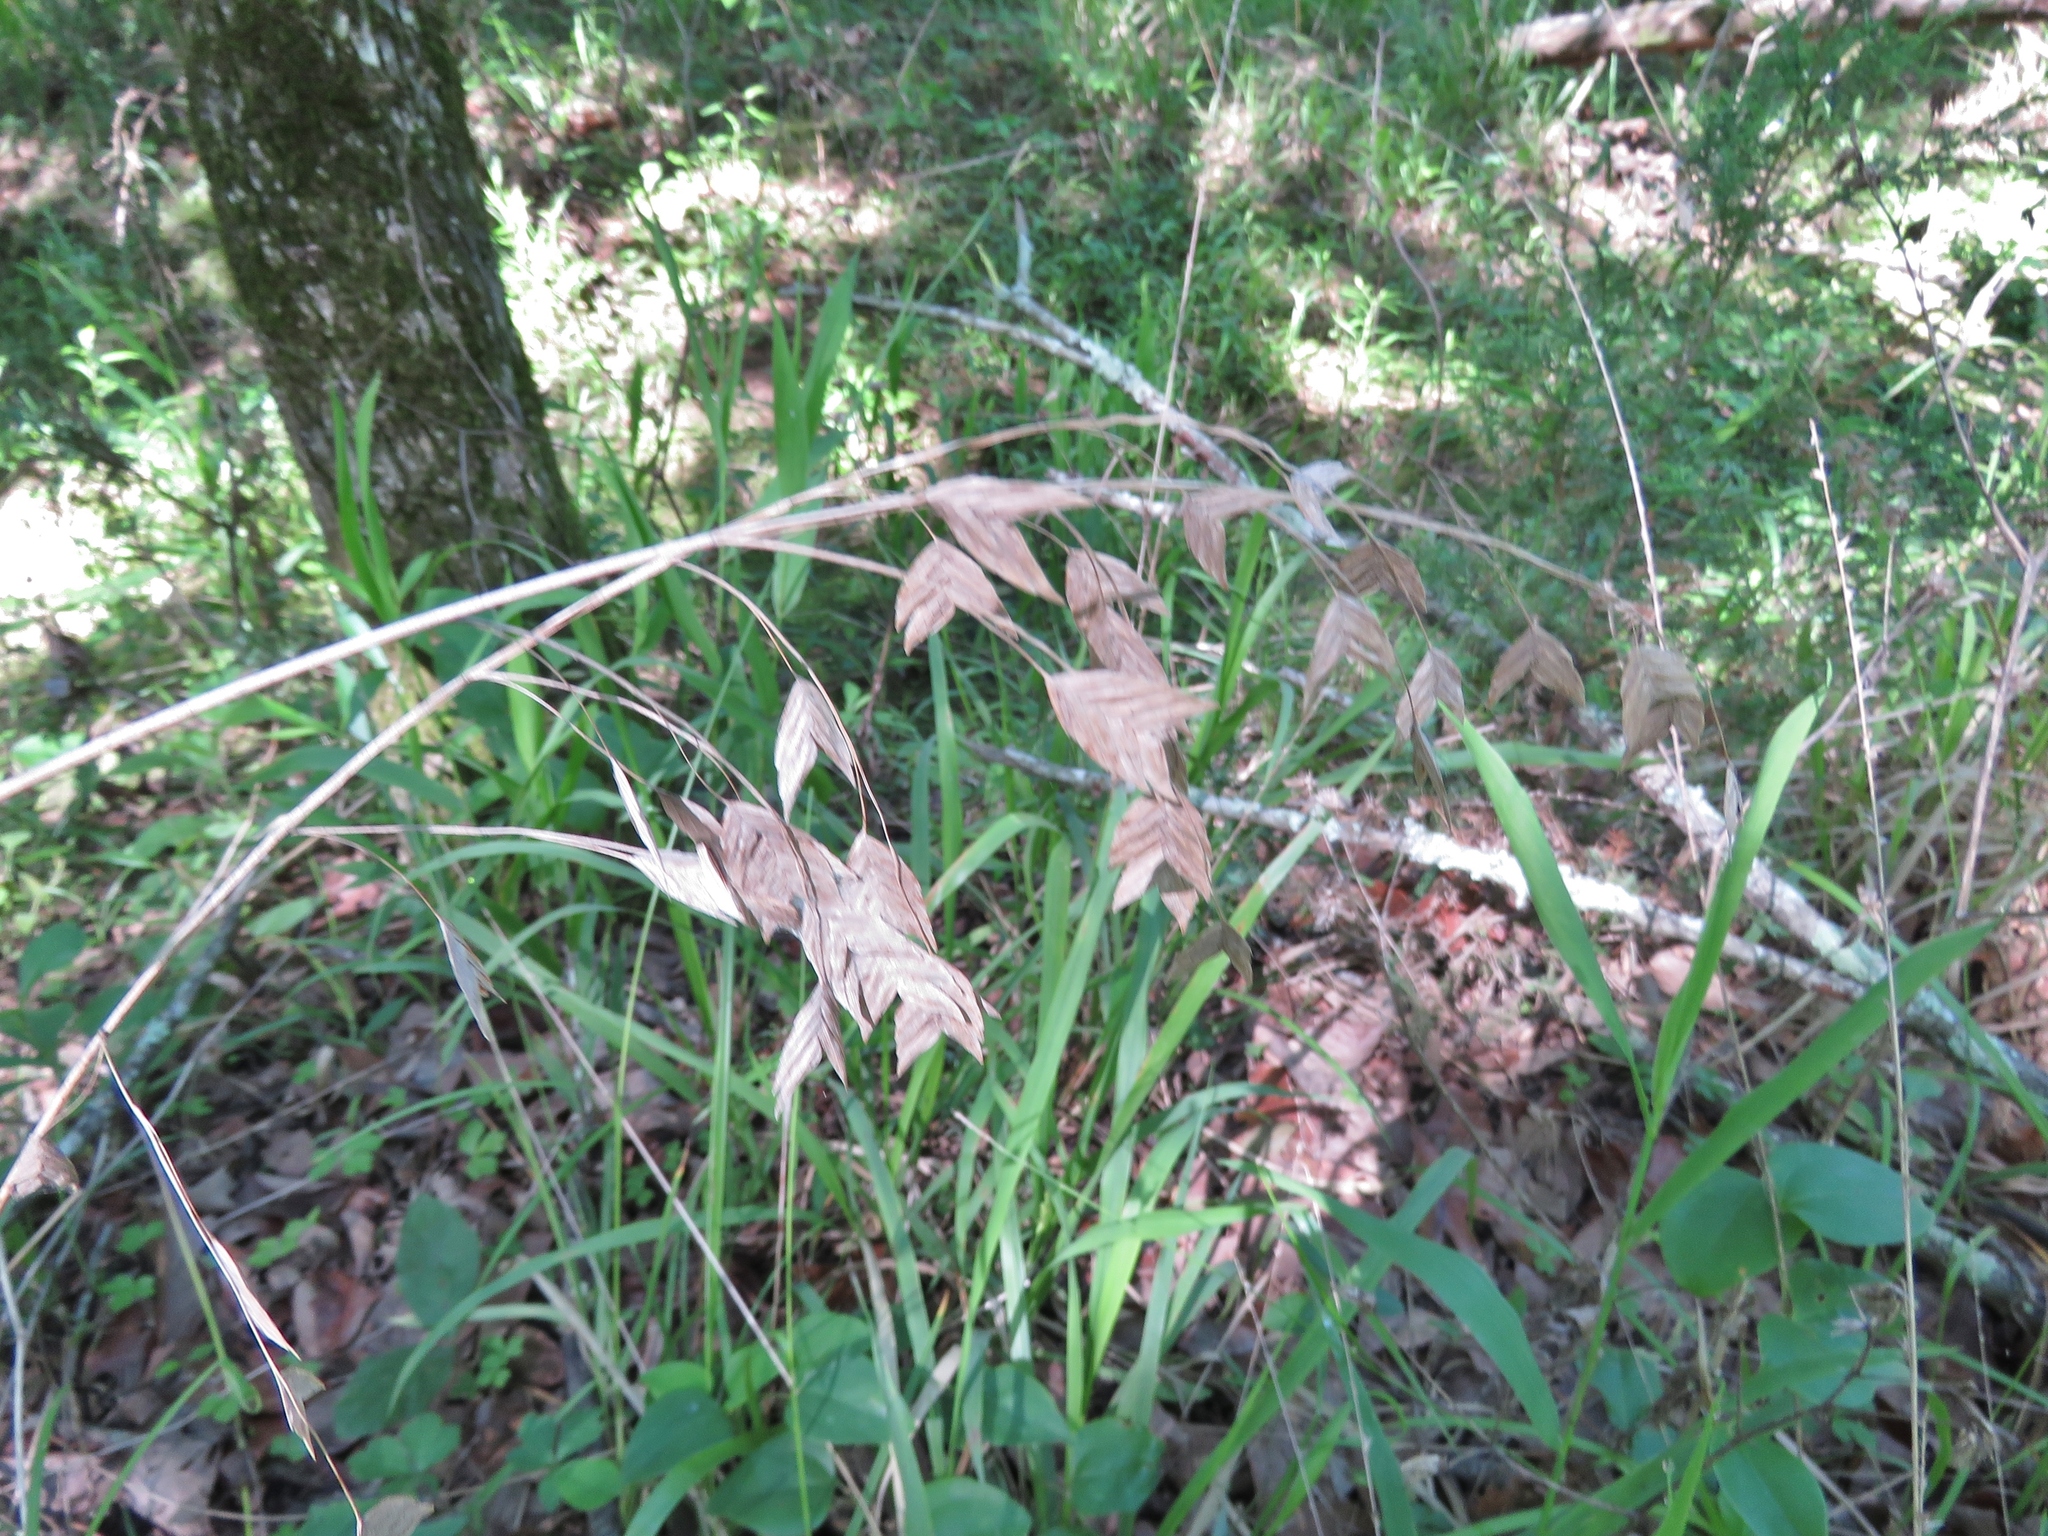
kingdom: Plantae
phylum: Tracheophyta
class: Liliopsida
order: Poales
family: Poaceae
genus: Chasmanthium
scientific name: Chasmanthium latifolium
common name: Broad-leaved chasmanthium
